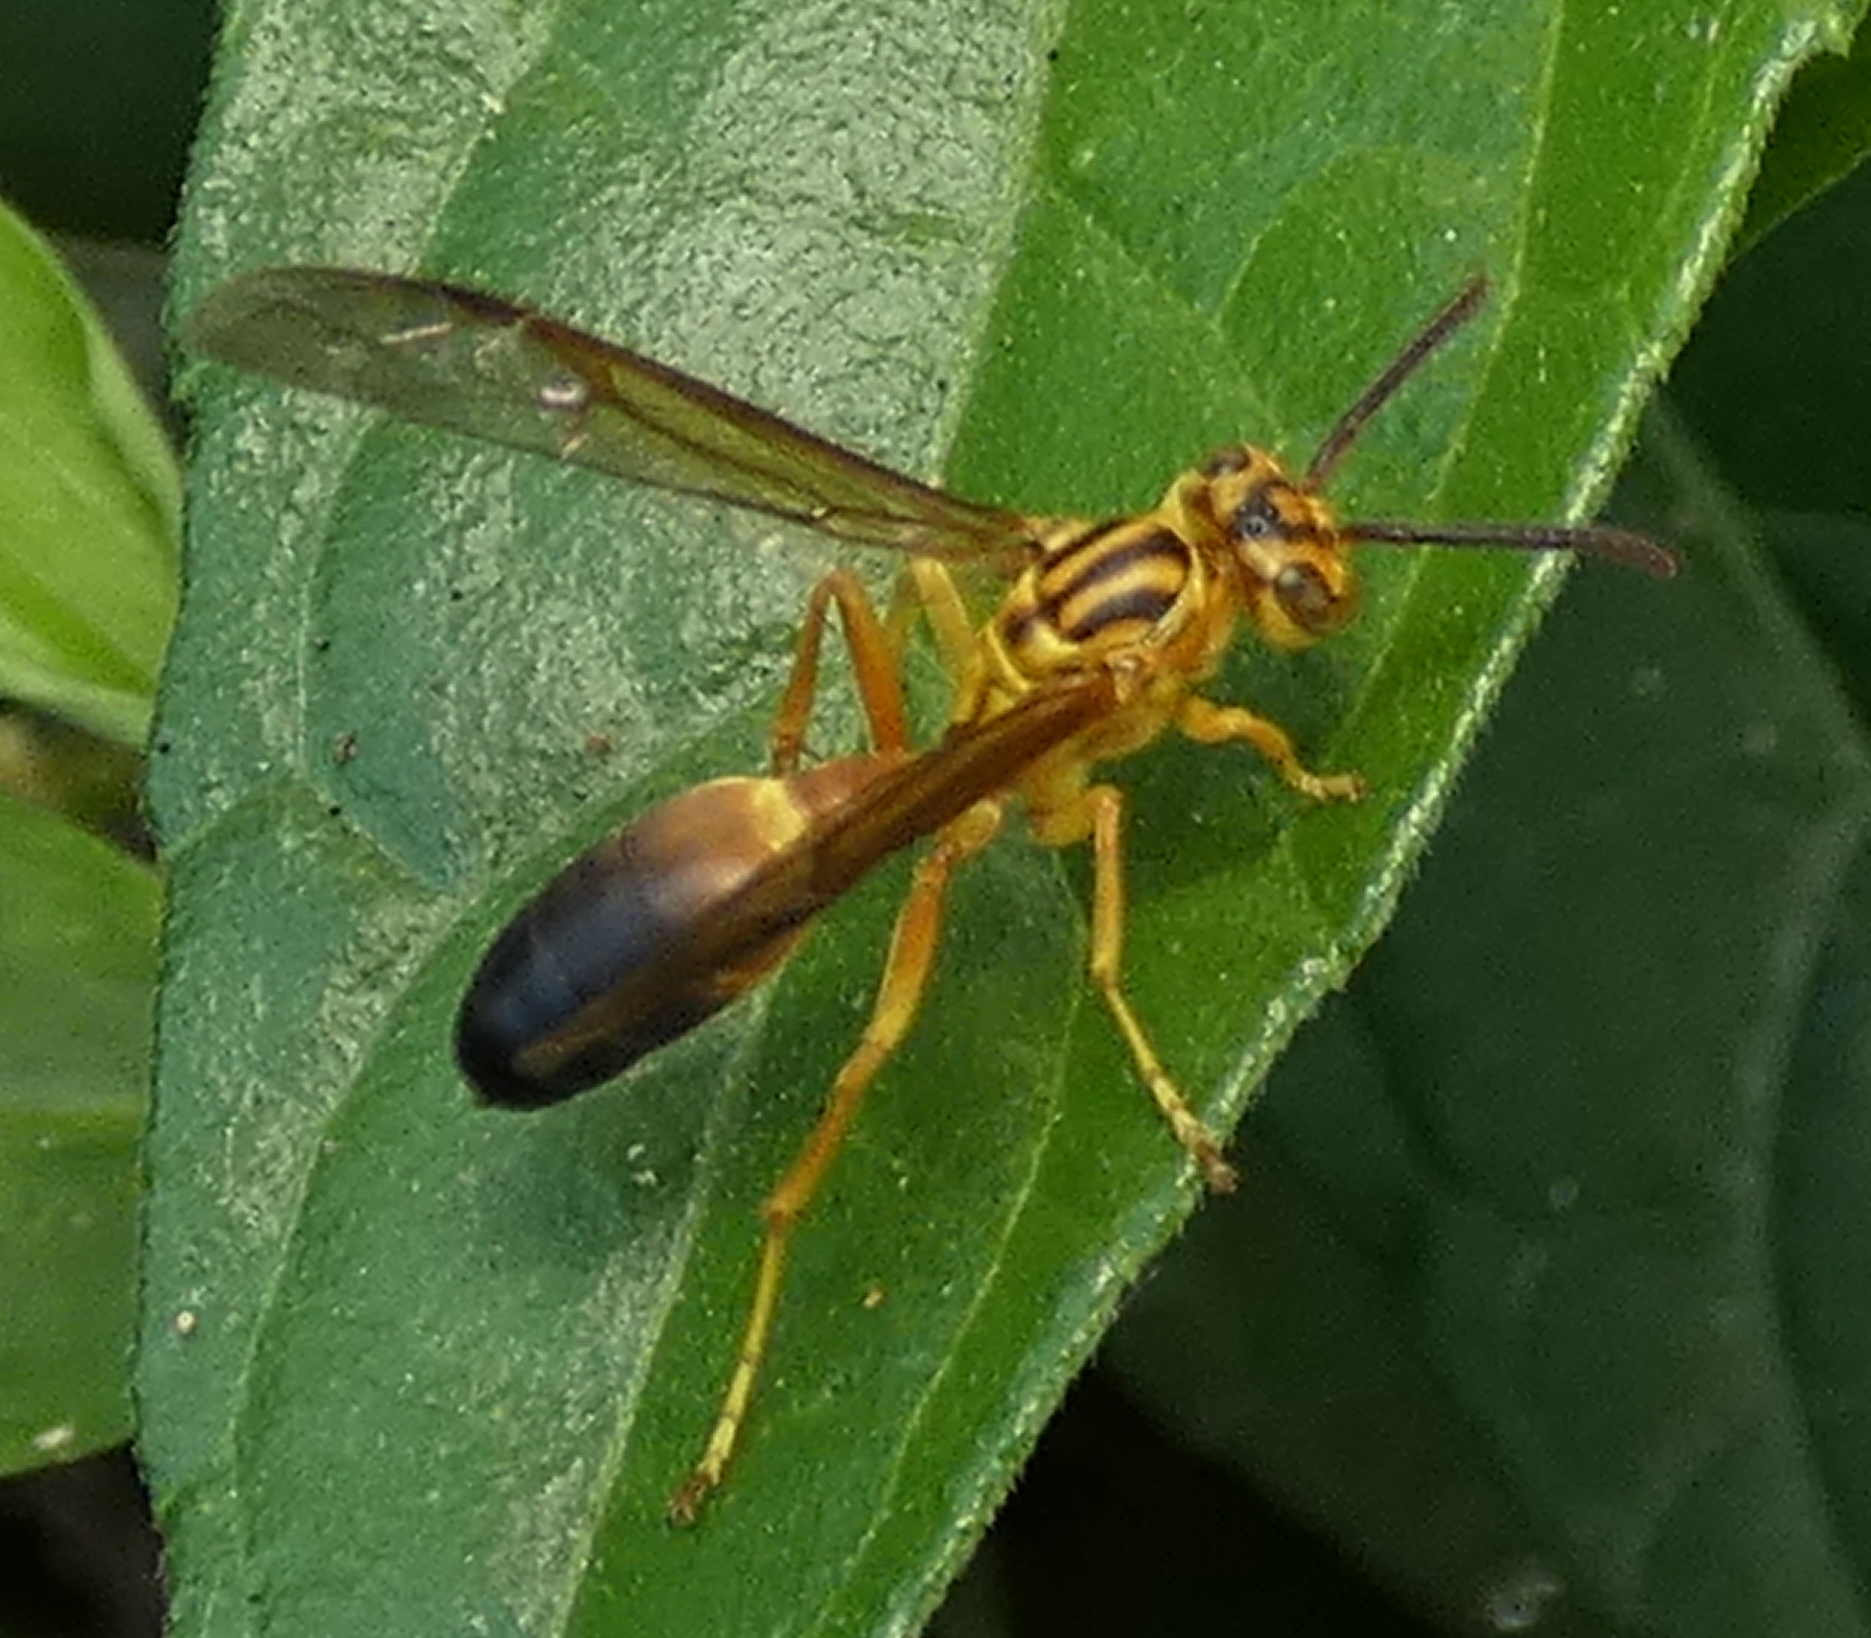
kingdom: Animalia
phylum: Arthropoda
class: Insecta
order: Hymenoptera
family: Vespidae
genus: Agelaia
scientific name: Agelaia pallipes
